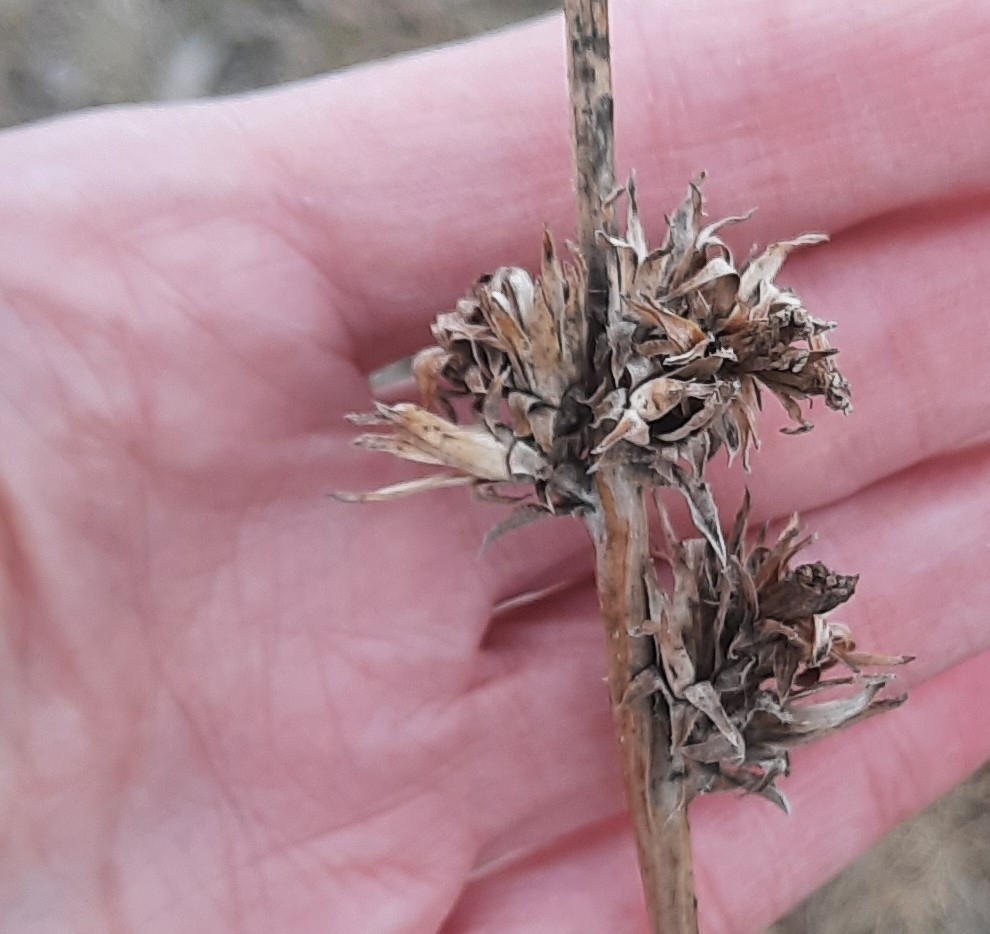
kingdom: Plantae
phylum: Tracheophyta
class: Magnoliopsida
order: Asterales
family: Asteraceae
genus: Cichorium
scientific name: Cichorium intybus
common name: Chicory
